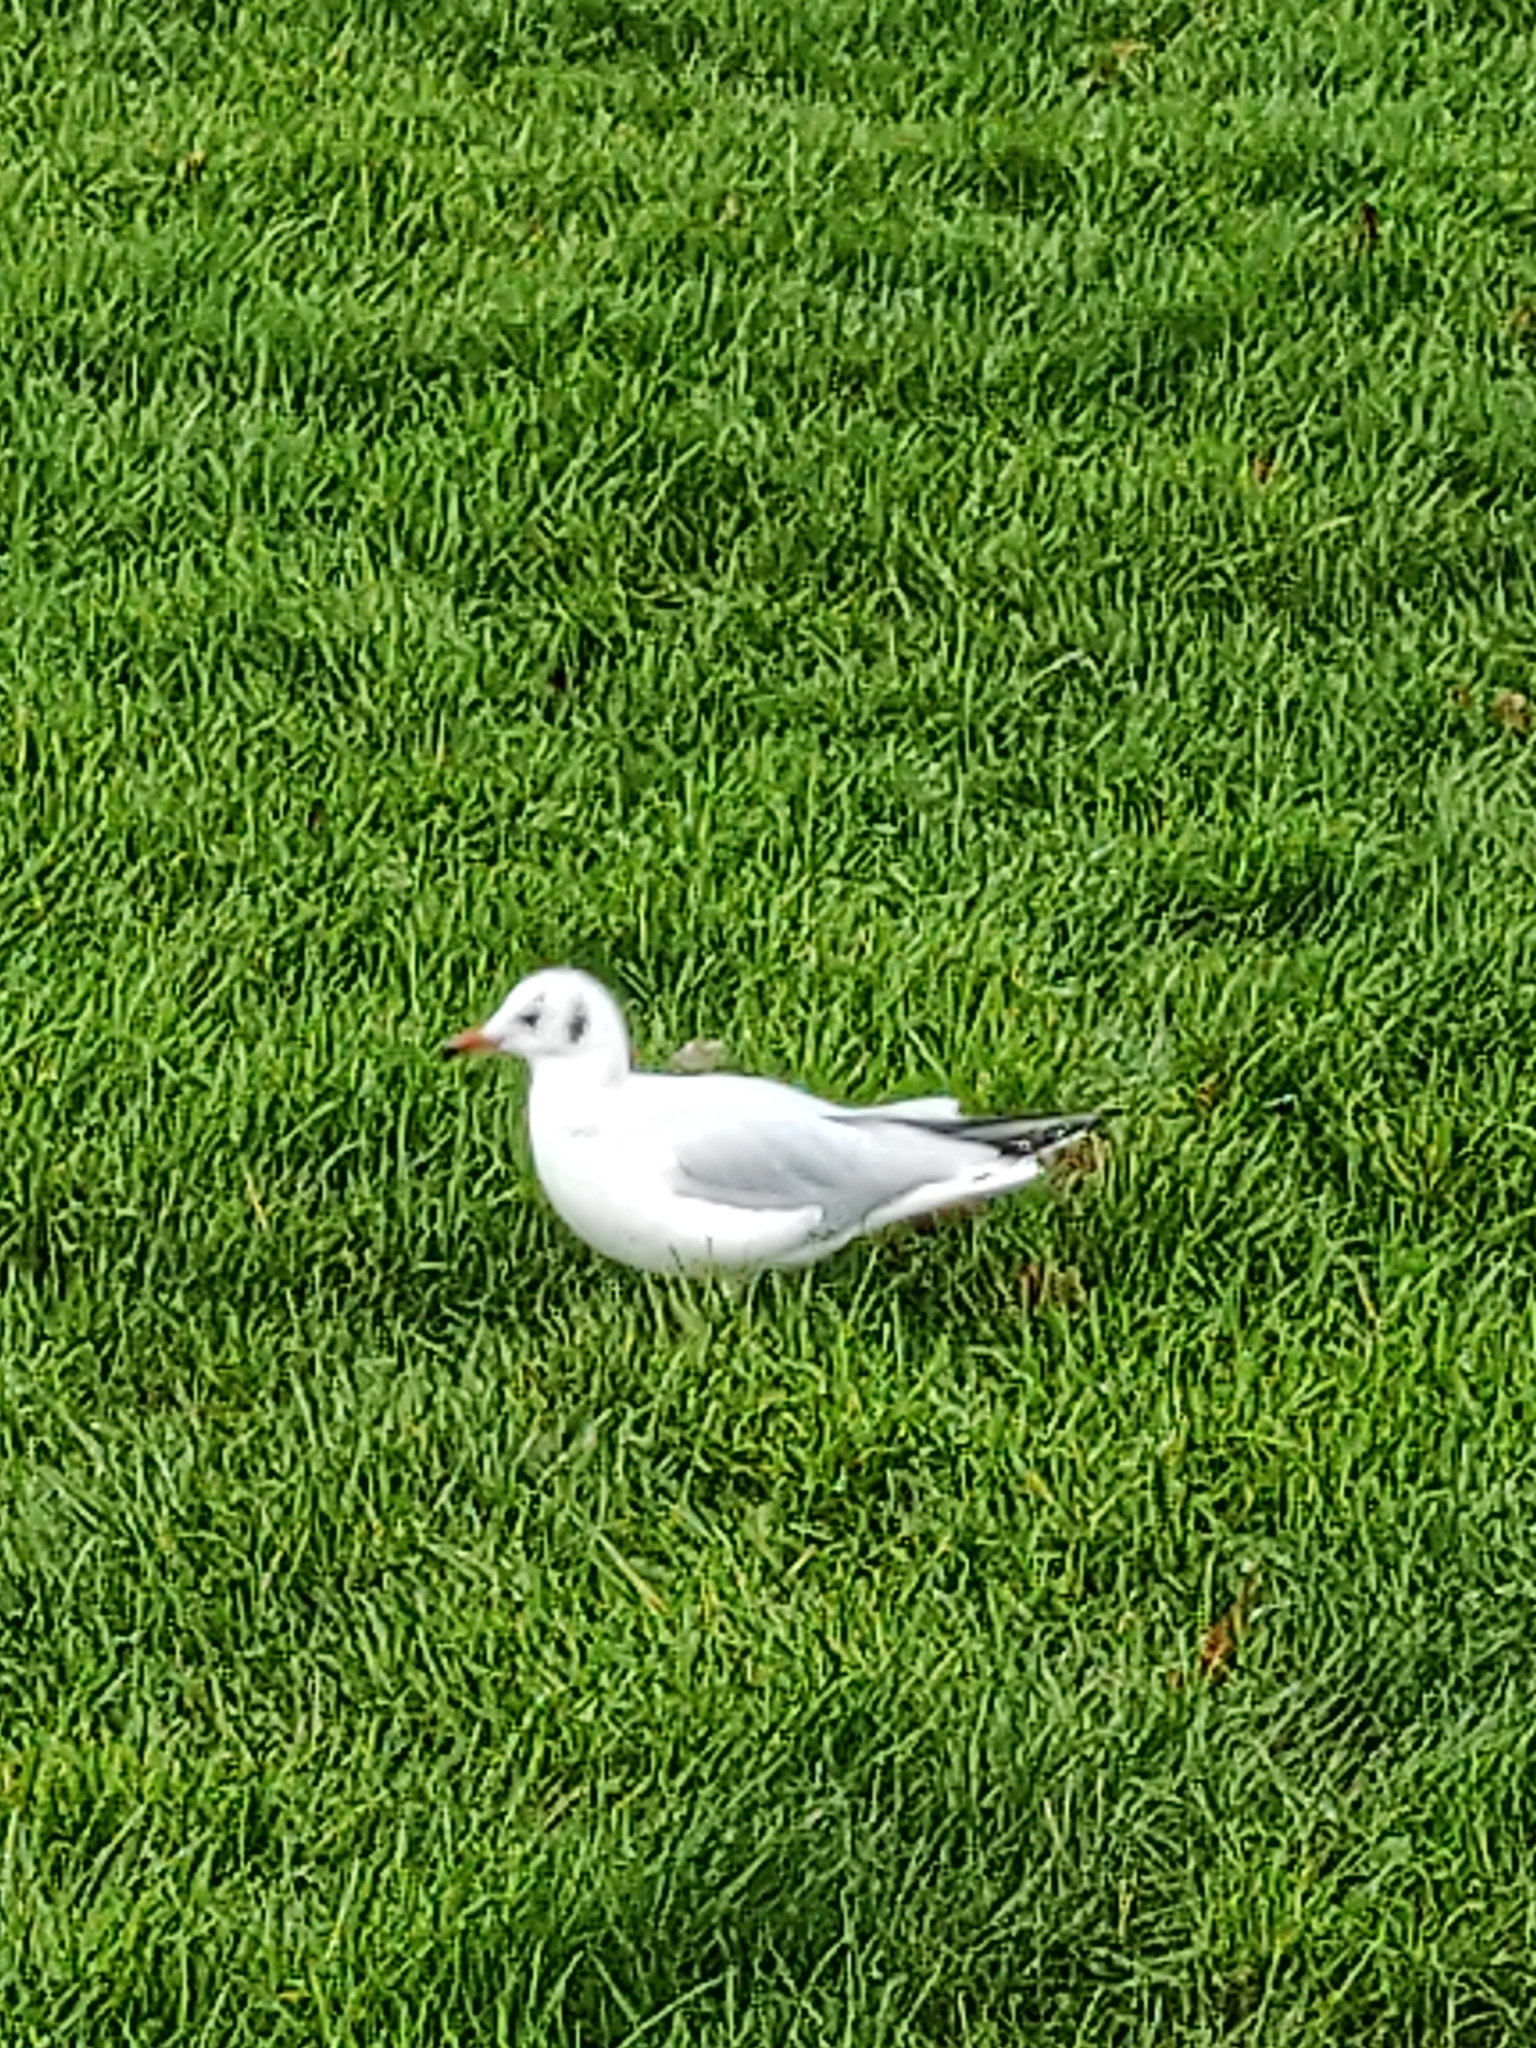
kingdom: Animalia
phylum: Chordata
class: Aves
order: Charadriiformes
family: Laridae
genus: Chroicocephalus
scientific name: Chroicocephalus ridibundus
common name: Black-headed gull
